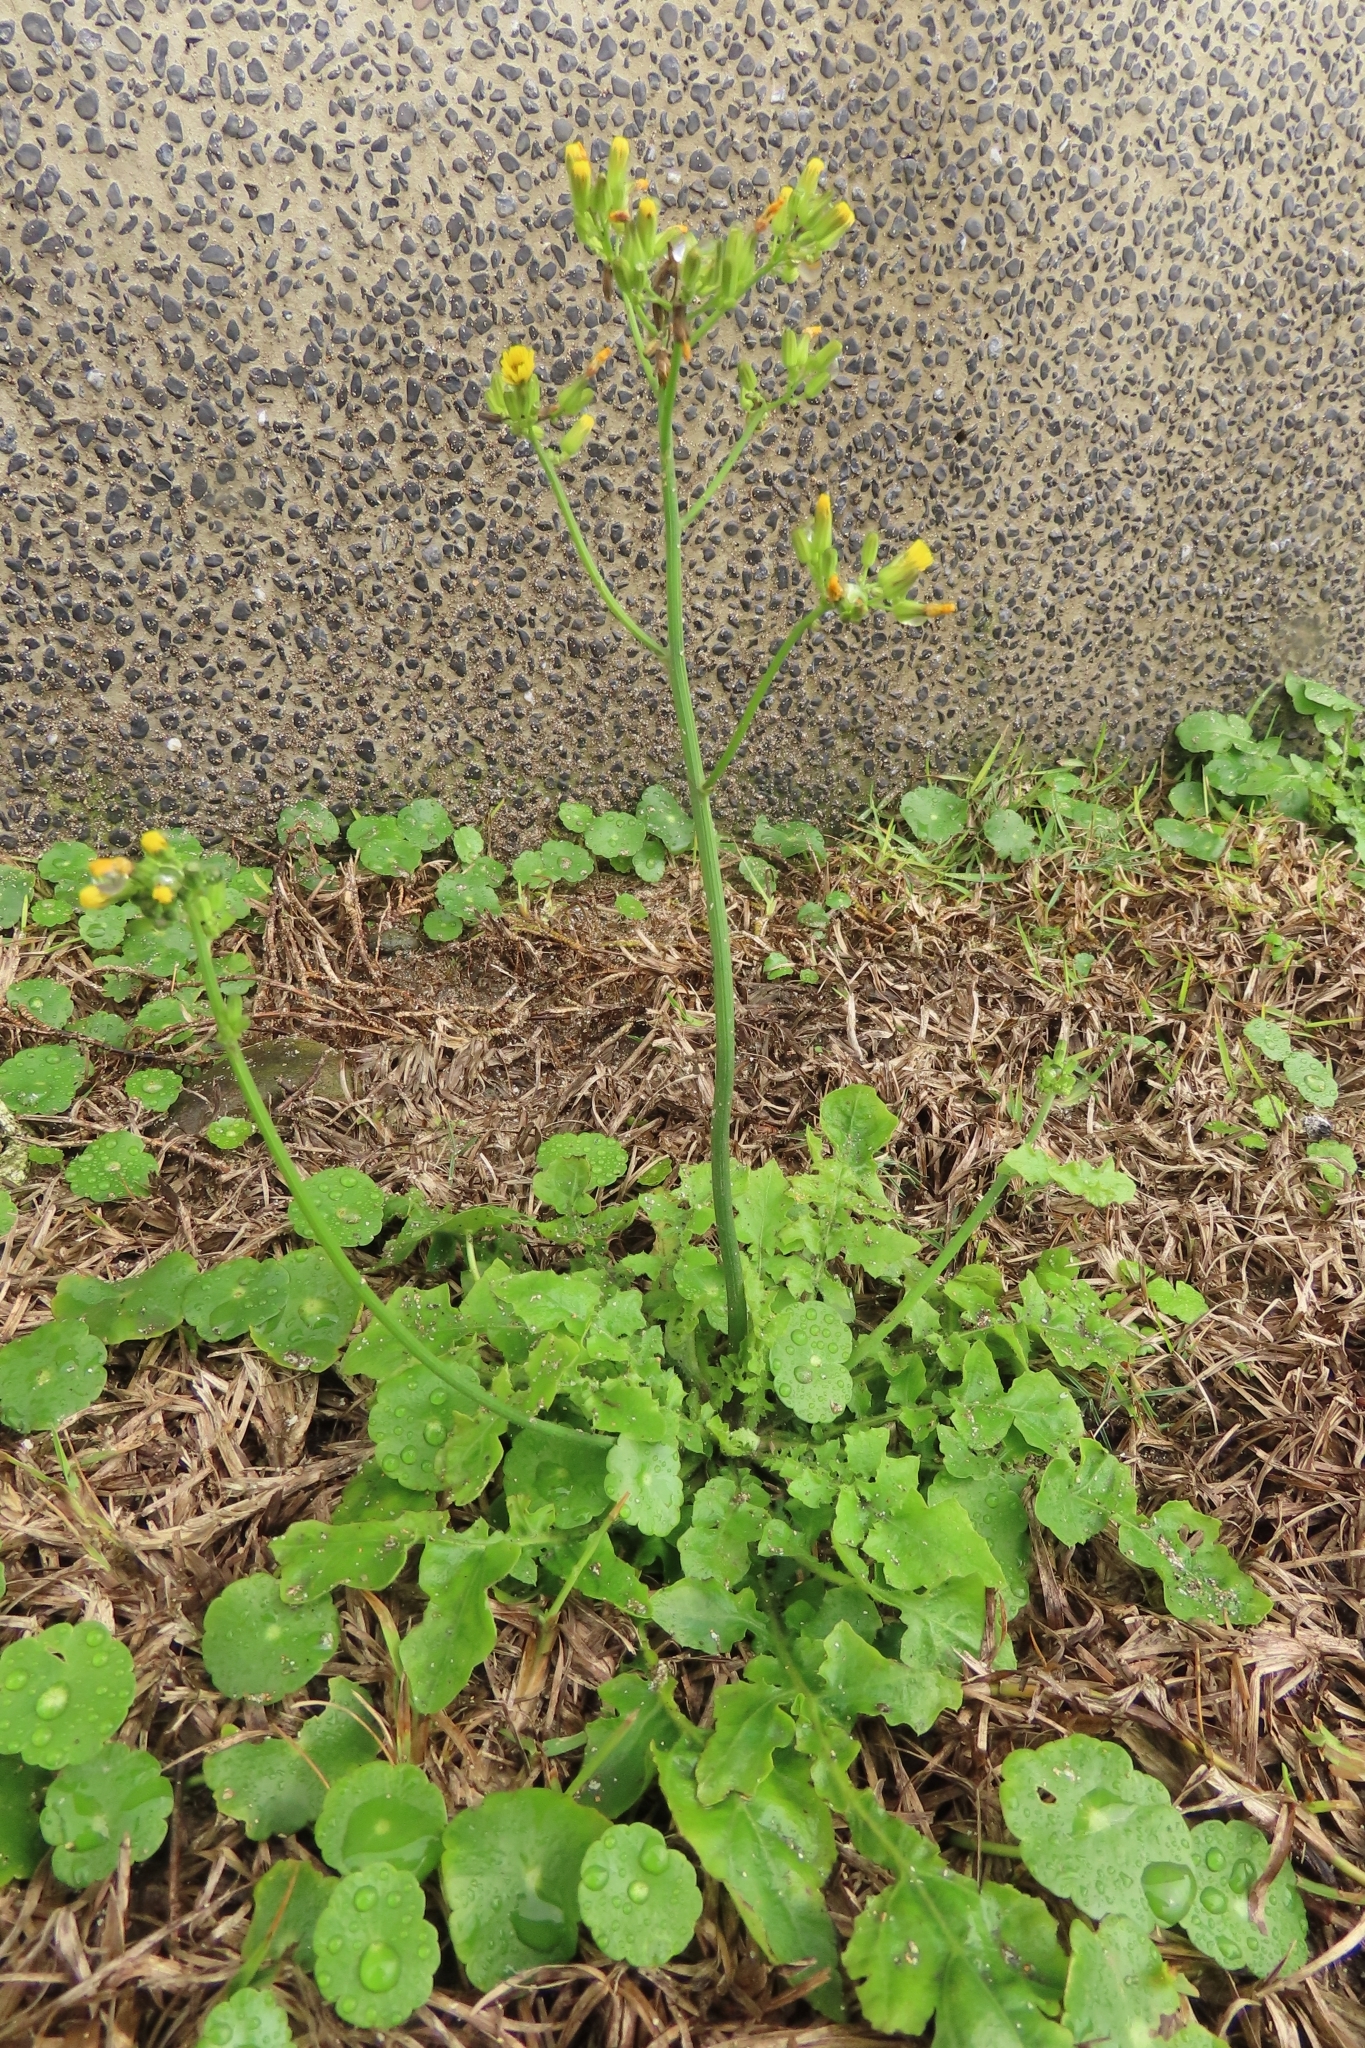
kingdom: Plantae
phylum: Tracheophyta
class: Magnoliopsida
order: Asterales
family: Asteraceae
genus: Youngia
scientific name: Youngia japonica
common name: Oriental false hawksbeard
